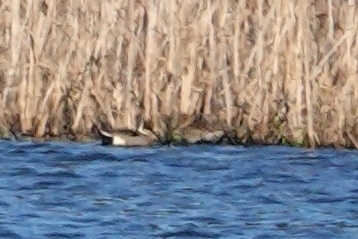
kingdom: Animalia
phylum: Chordata
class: Aves
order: Anseriformes
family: Anatidae
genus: Anas
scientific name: Anas acuta
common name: Northern pintail
